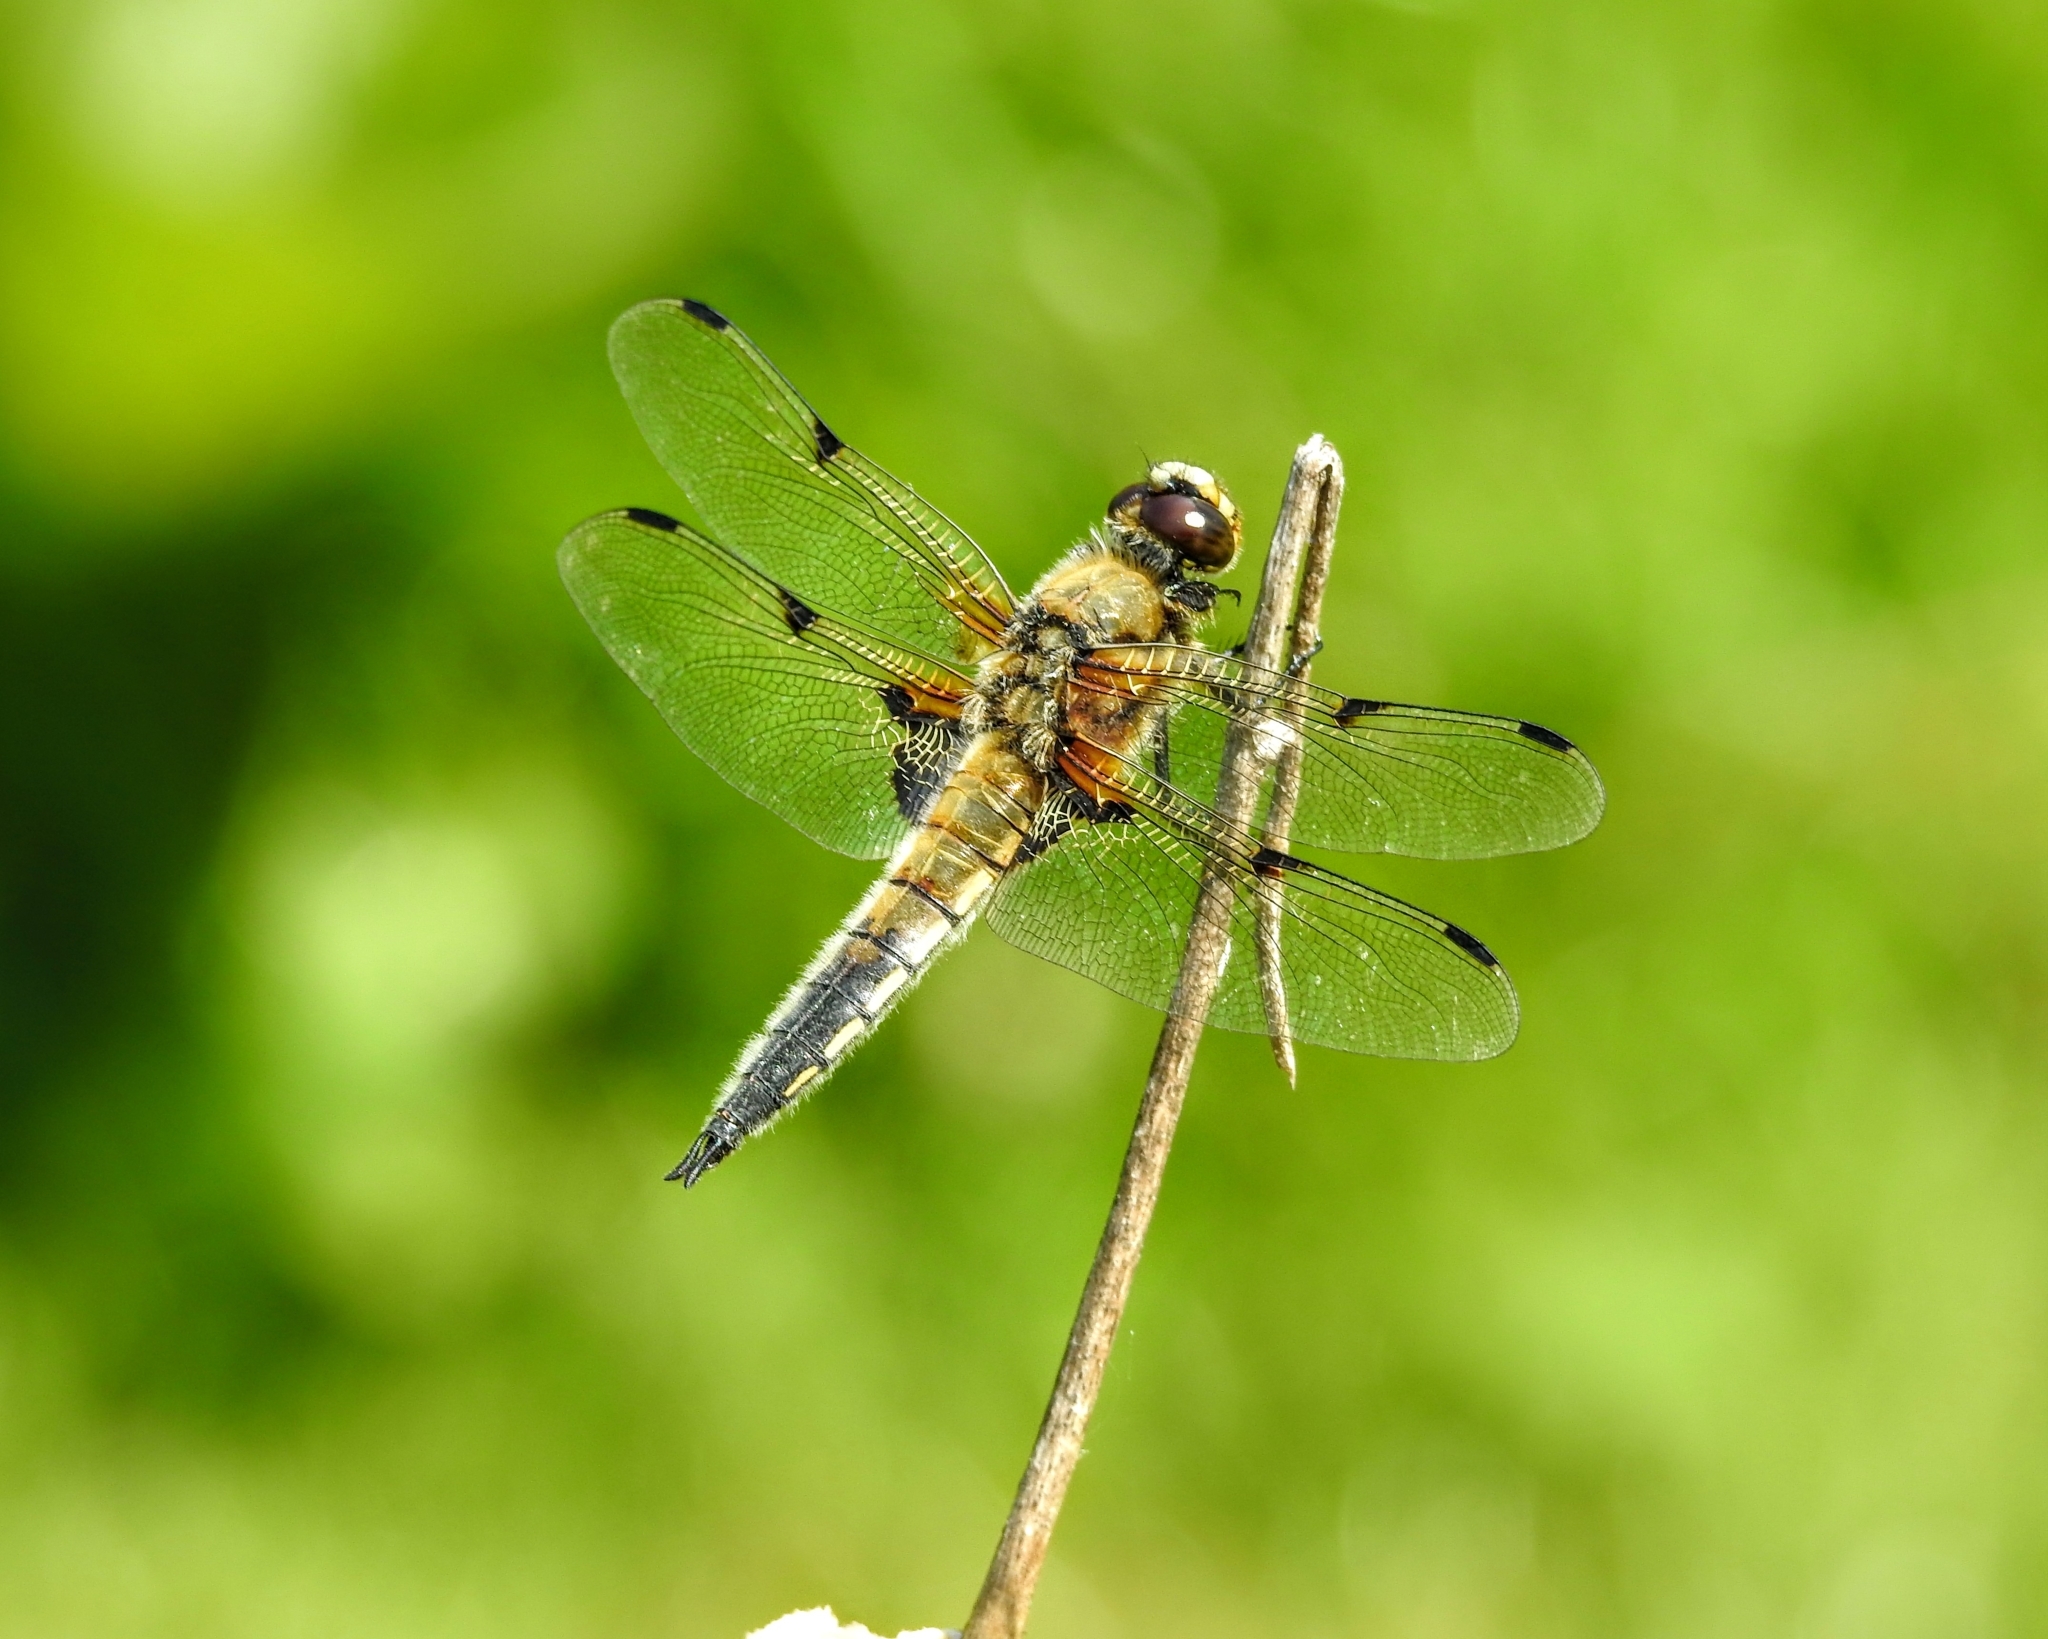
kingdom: Animalia
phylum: Arthropoda
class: Insecta
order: Odonata
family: Libellulidae
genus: Libellula
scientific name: Libellula quadrimaculata
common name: Four-spotted chaser
